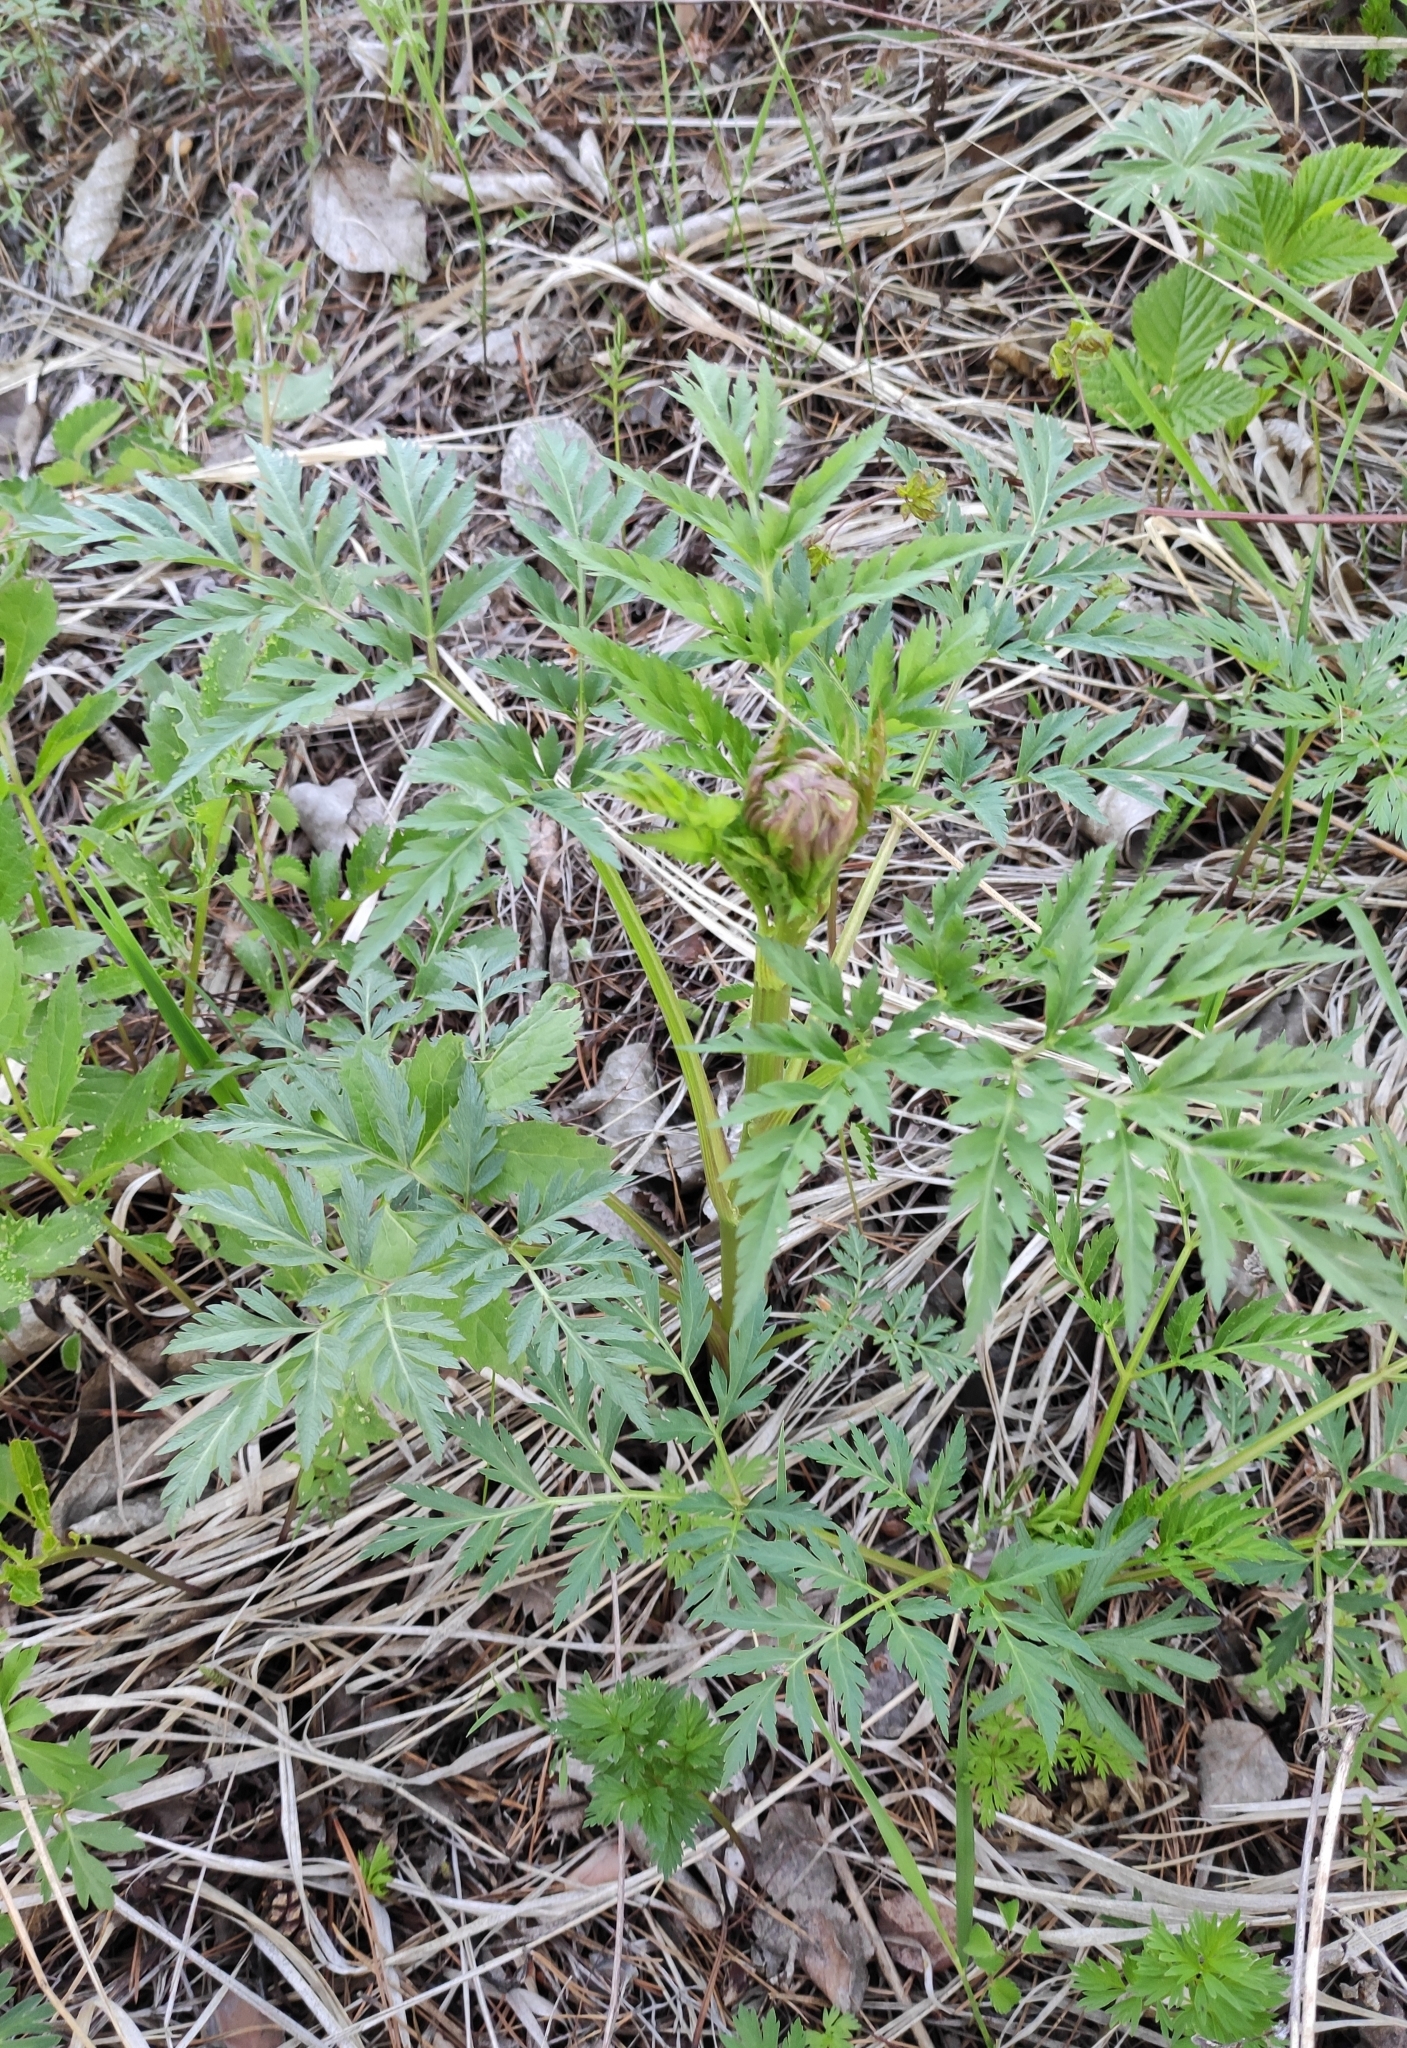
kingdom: Plantae
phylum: Tracheophyta
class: Magnoliopsida
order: Apiales
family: Apiaceae
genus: Pleurospermum
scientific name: Pleurospermum uralense
